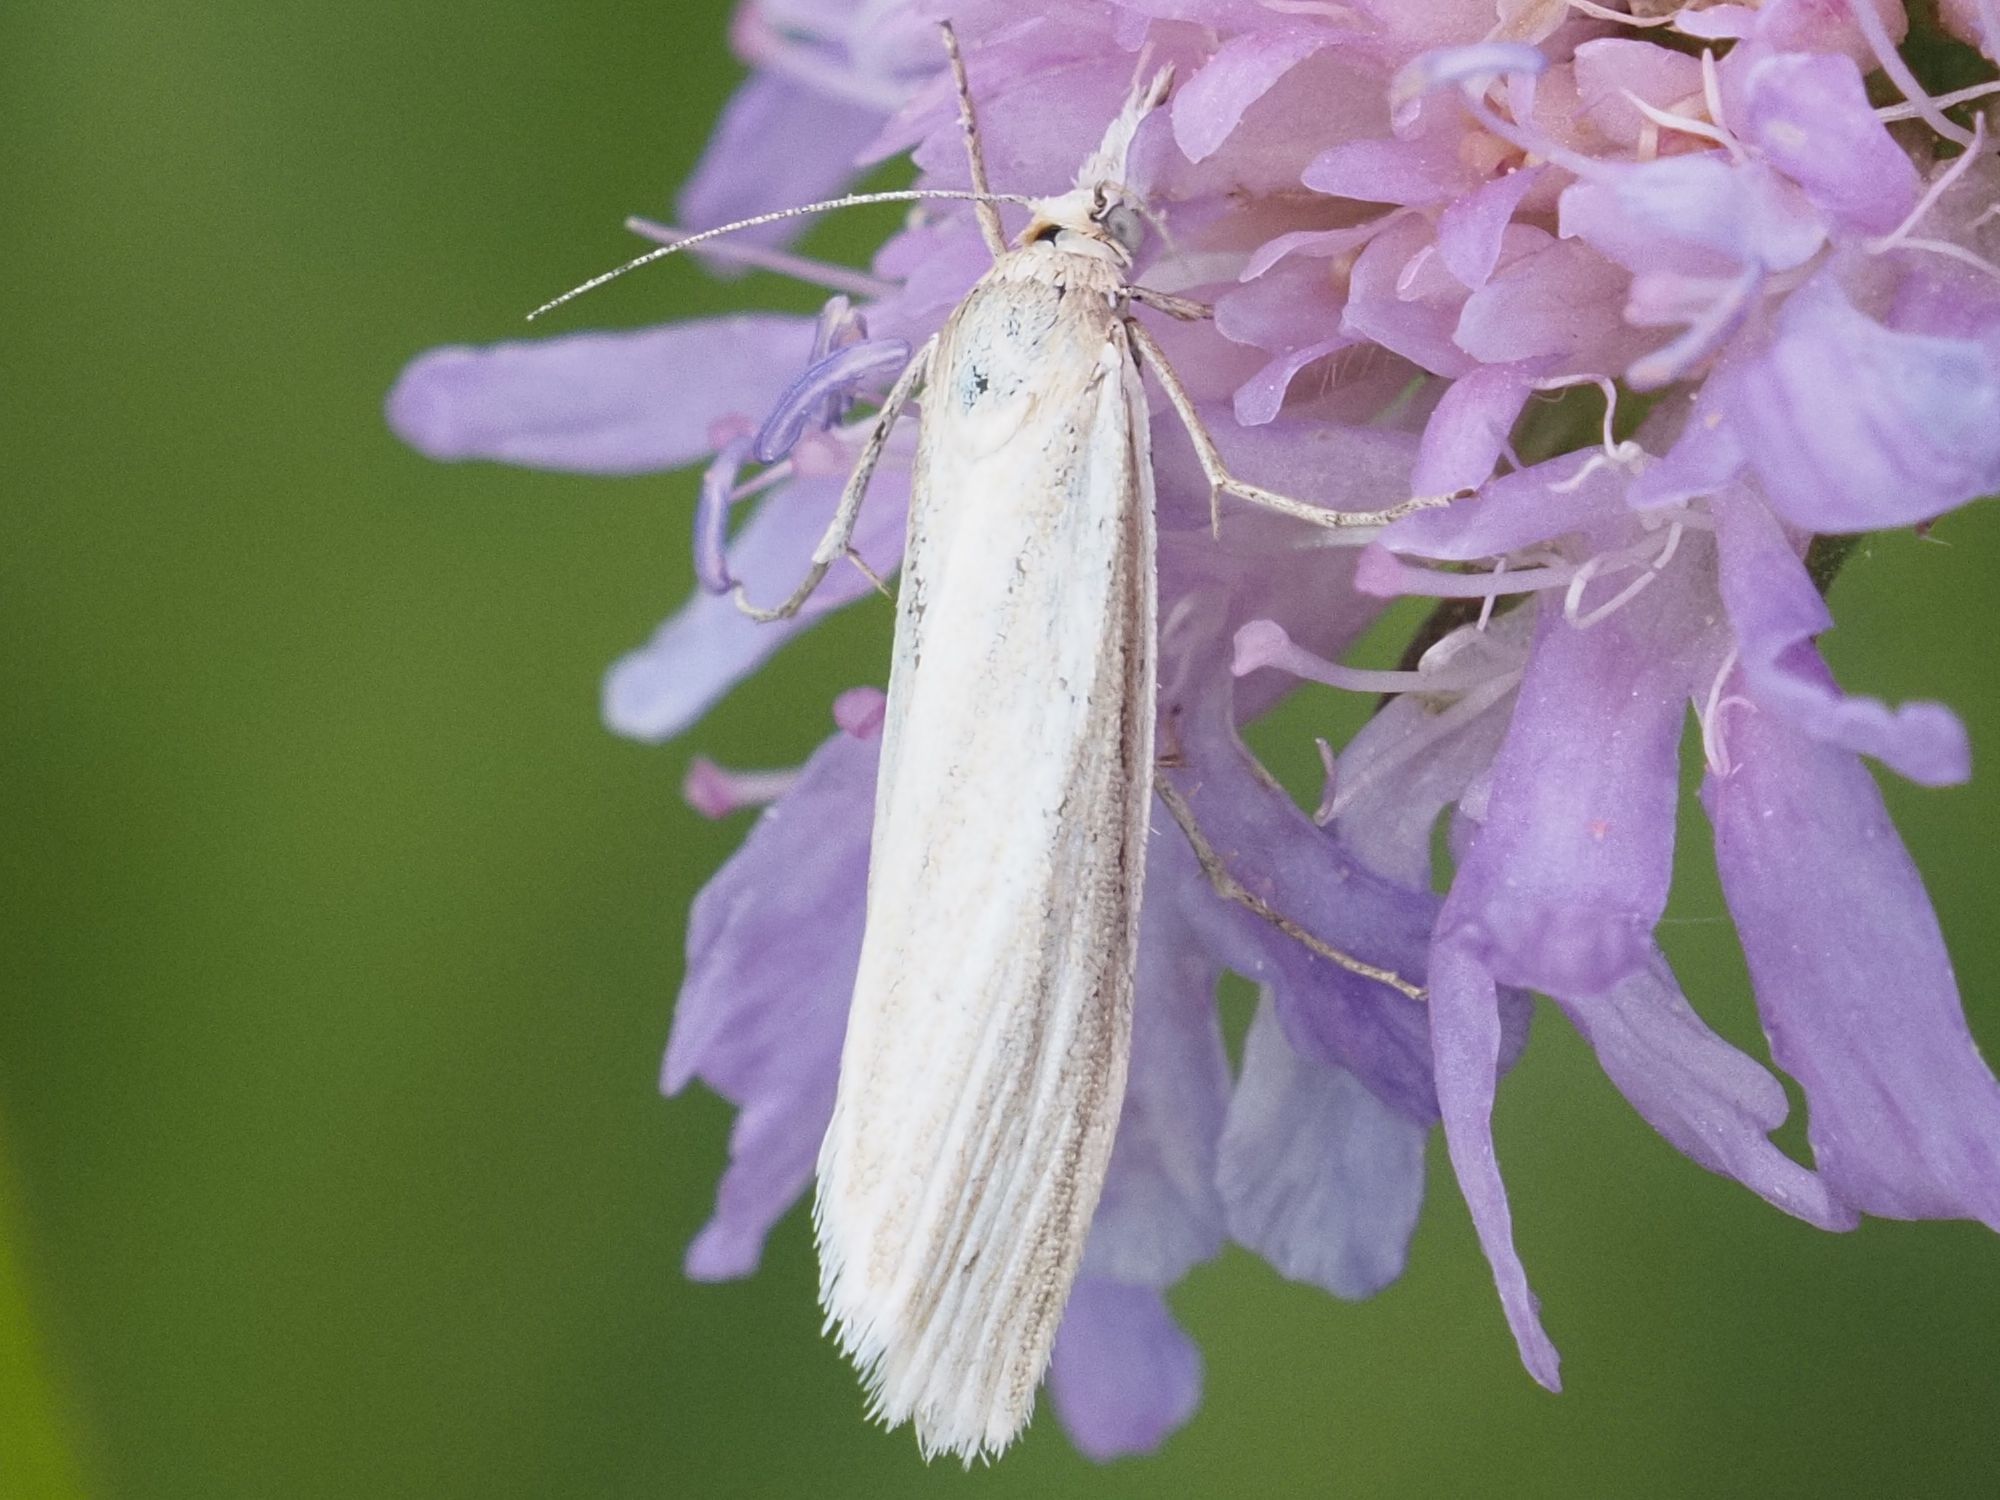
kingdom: Animalia
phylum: Arthropoda
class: Insecta
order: Lepidoptera
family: Crambidae
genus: Crambus
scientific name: Crambus perlellus
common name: Yellow satin veneer
